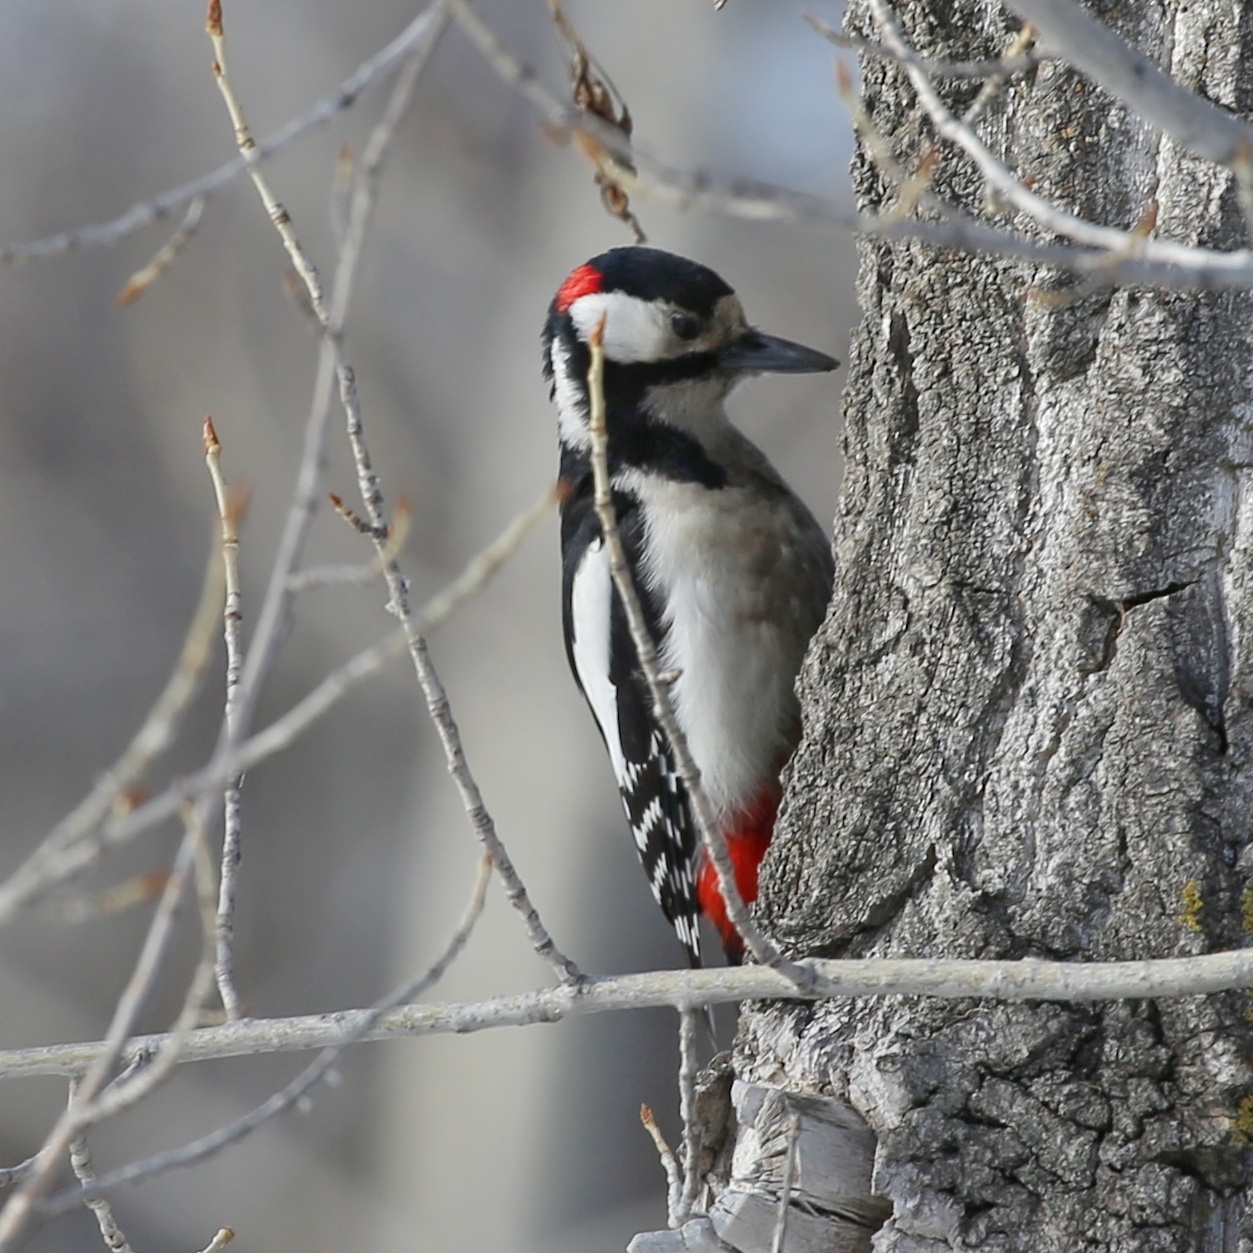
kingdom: Animalia
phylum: Chordata
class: Aves
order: Piciformes
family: Picidae
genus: Dendrocopos
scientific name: Dendrocopos major
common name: Great spotted woodpecker
